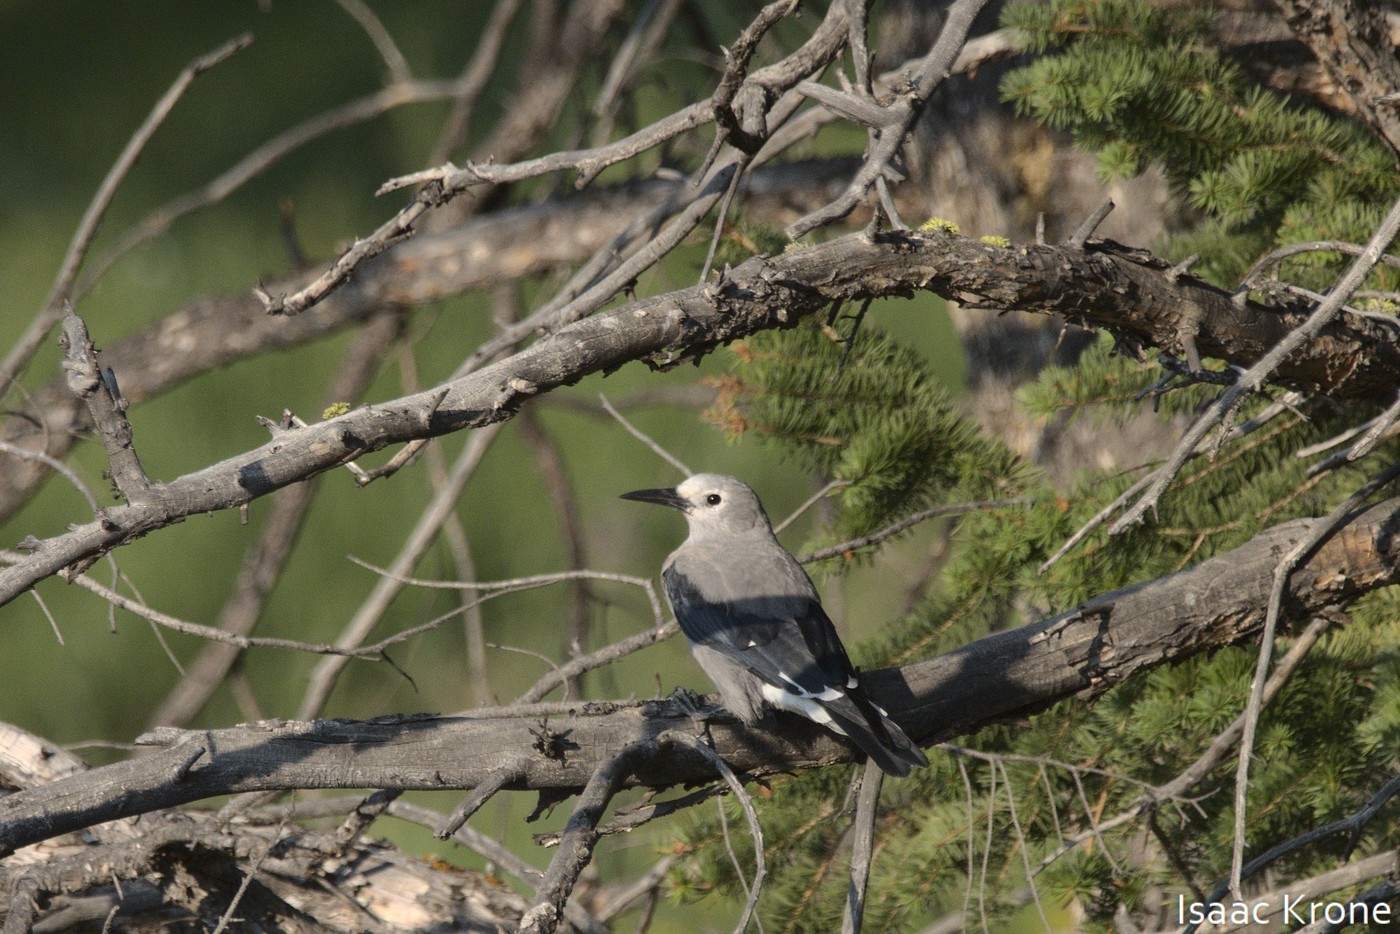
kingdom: Animalia
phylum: Chordata
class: Aves
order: Passeriformes
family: Corvidae
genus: Nucifraga
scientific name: Nucifraga columbiana
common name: Clark's nutcracker
